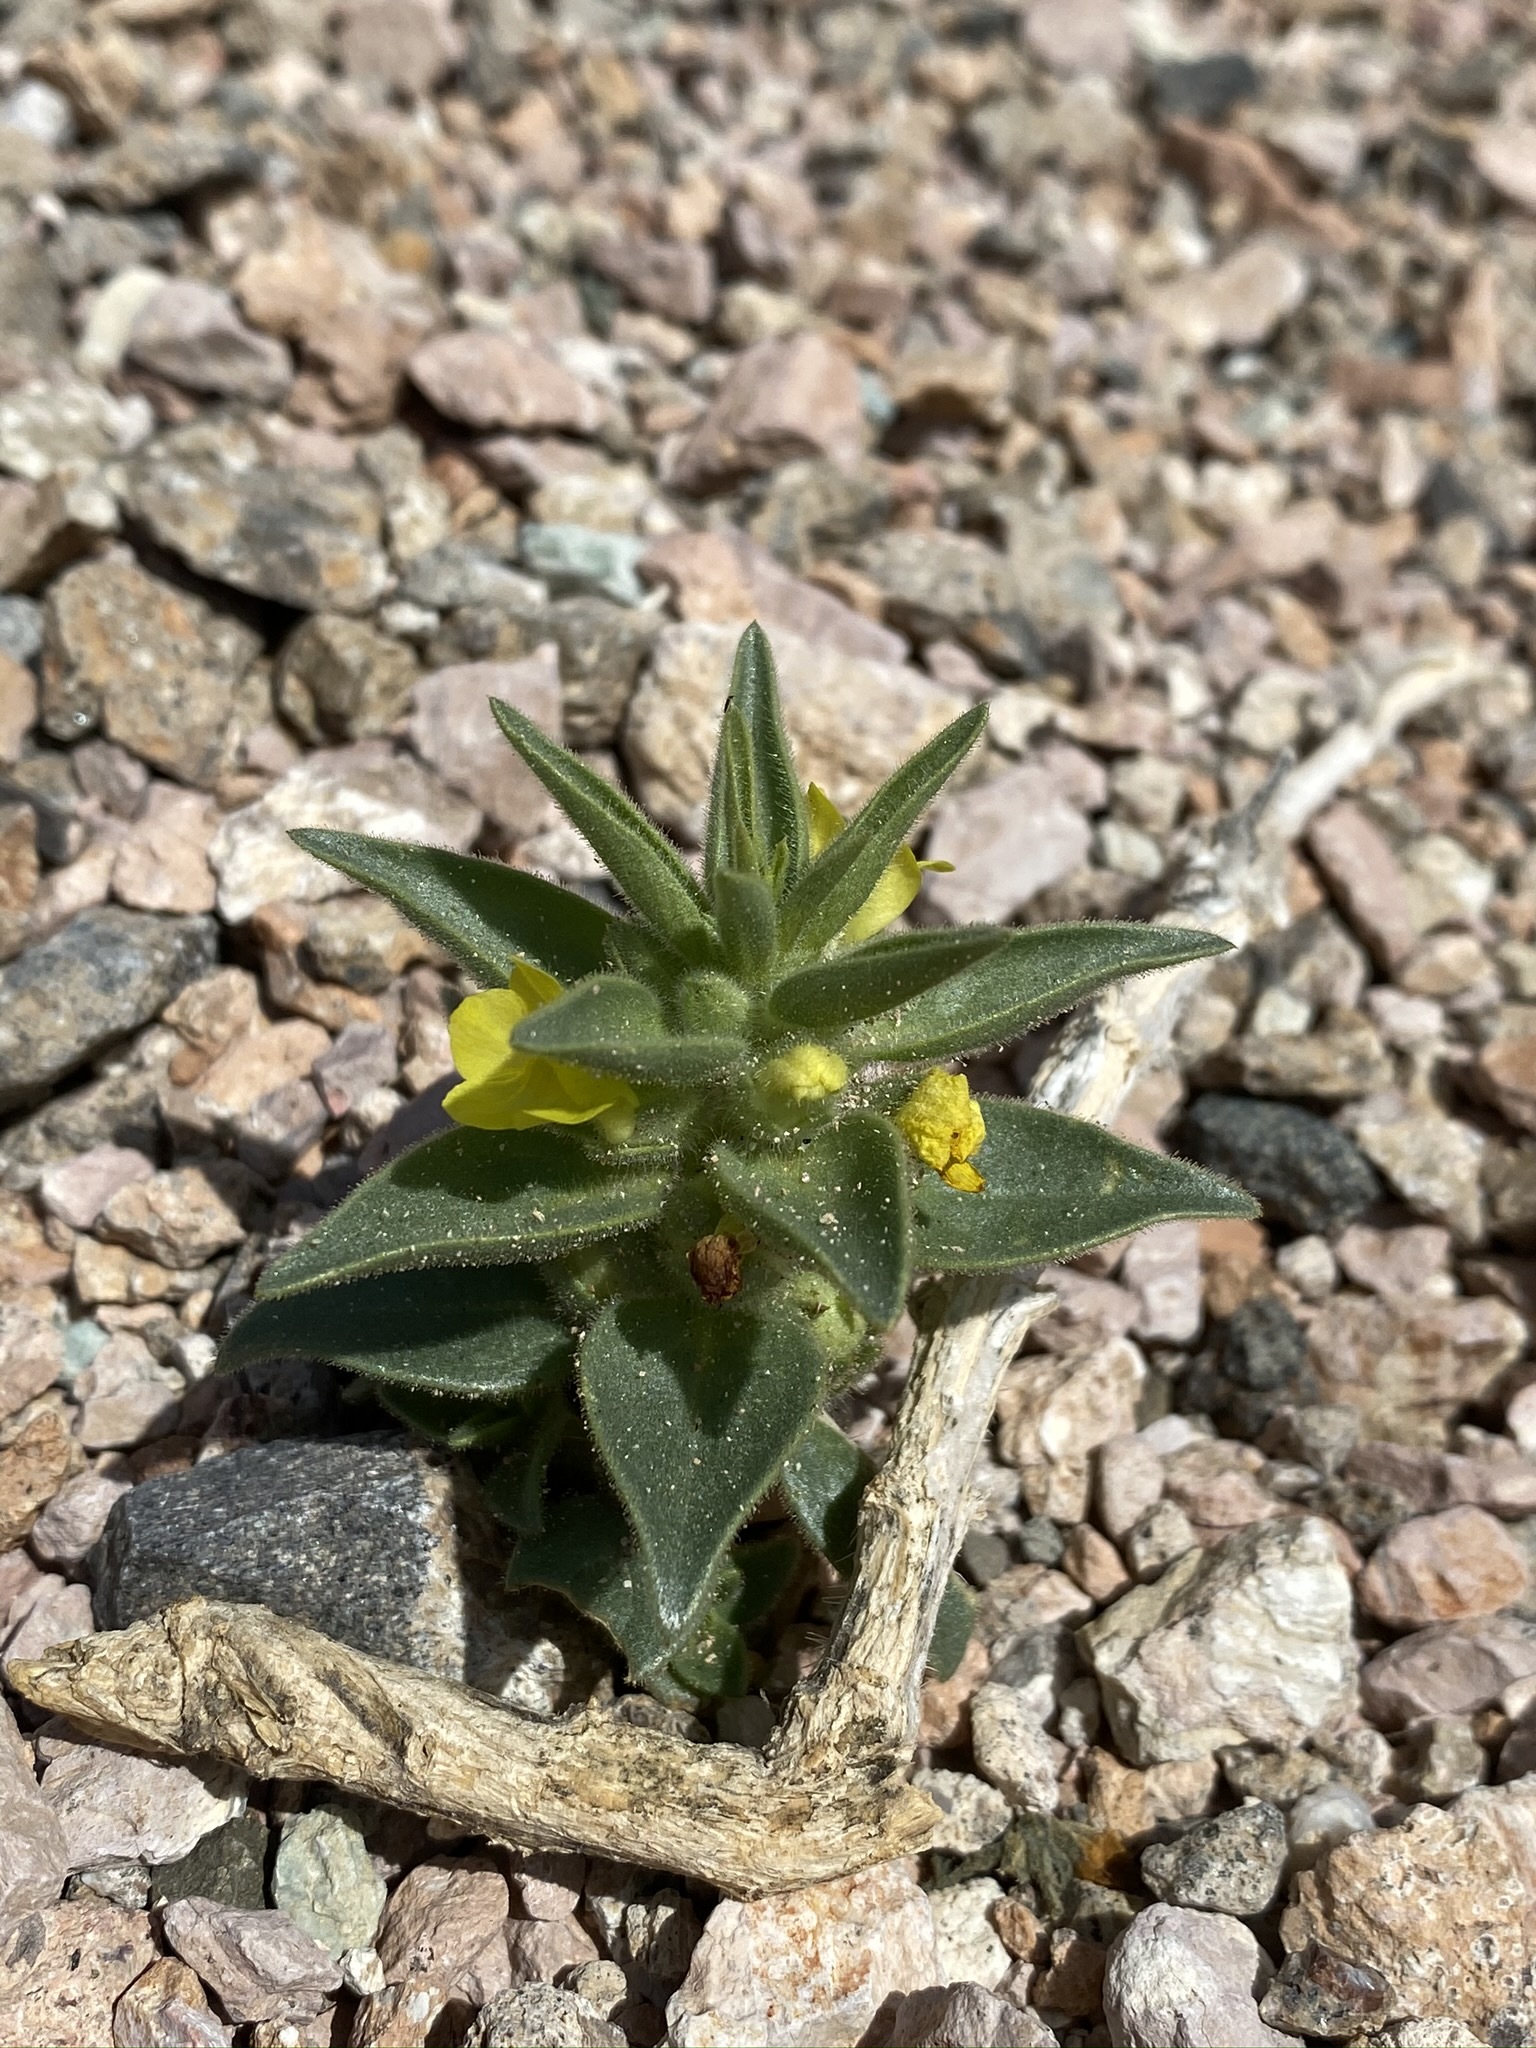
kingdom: Plantae
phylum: Tracheophyta
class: Magnoliopsida
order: Lamiales
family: Plantaginaceae
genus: Mohavea
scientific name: Mohavea breviflora
